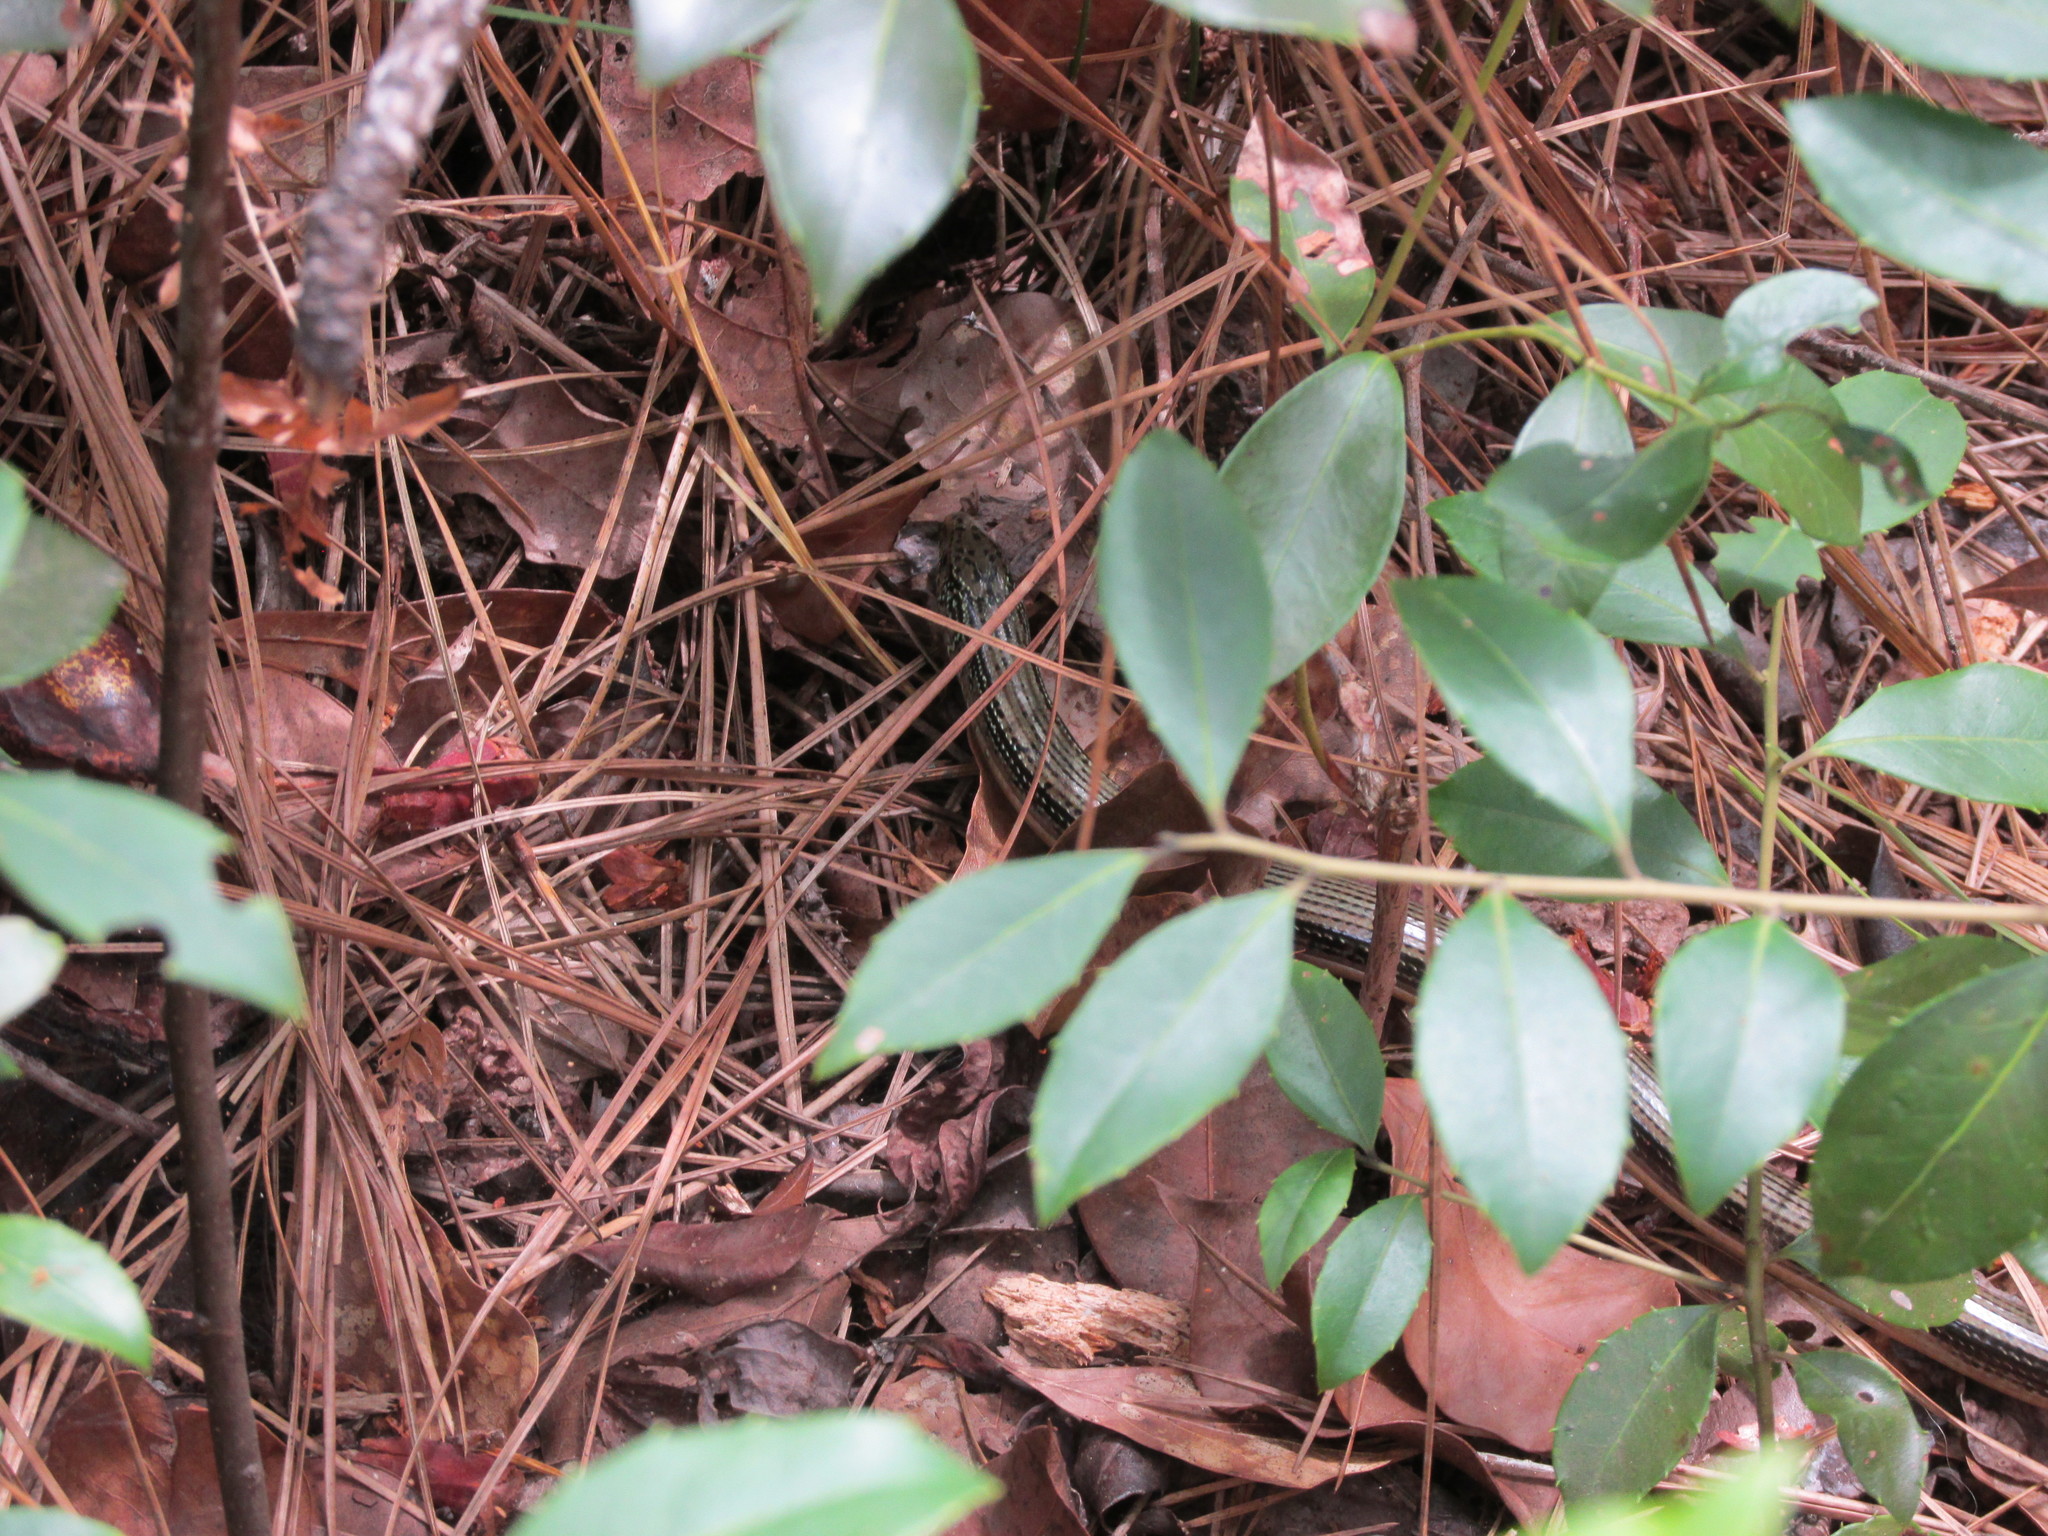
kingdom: Animalia
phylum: Chordata
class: Squamata
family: Anguidae
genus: Ophisaurus
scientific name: Ophisaurus ventralis
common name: Eastern glass lizard
